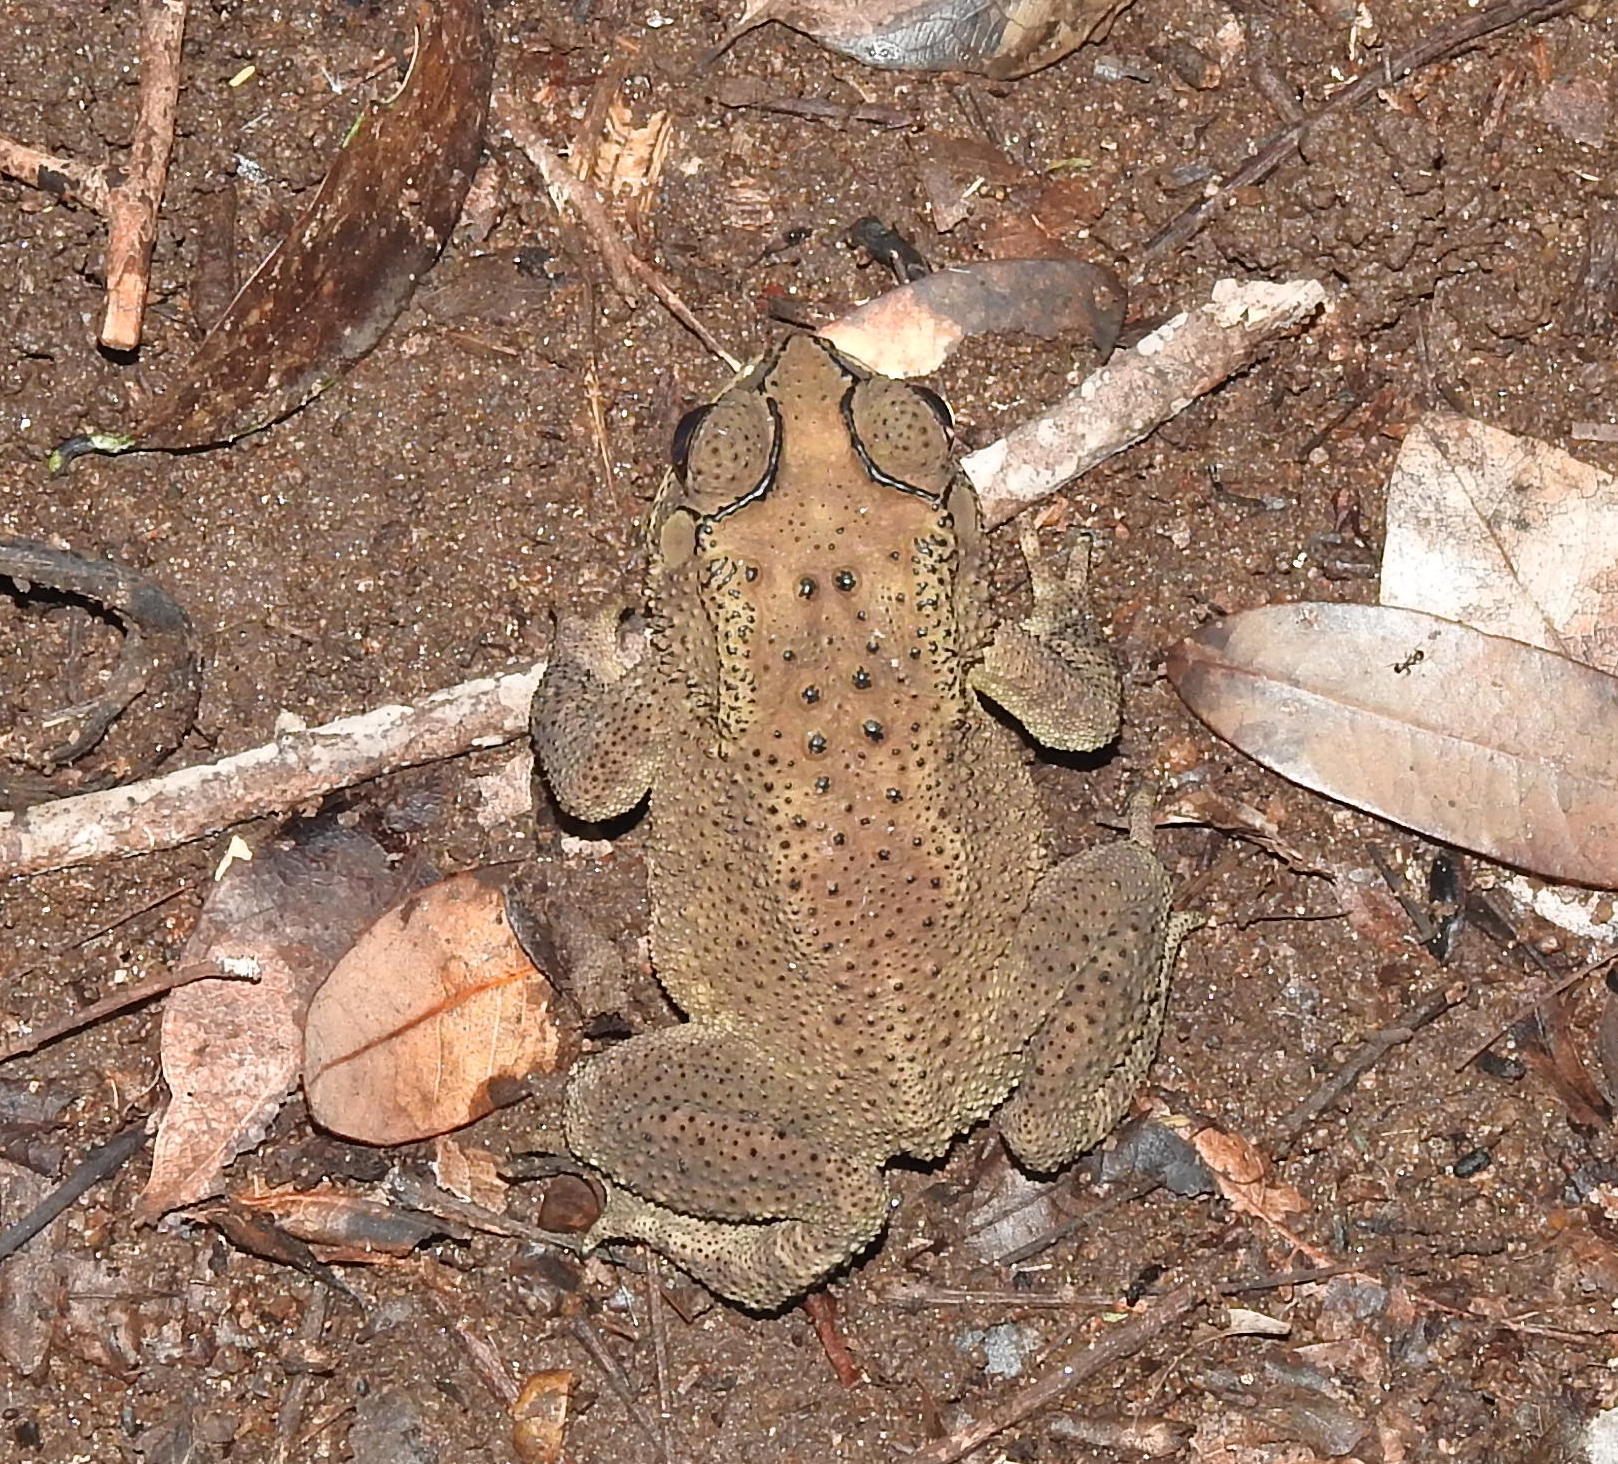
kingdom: Animalia
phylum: Chordata
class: Amphibia
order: Anura
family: Bufonidae
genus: Duttaphrynus
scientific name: Duttaphrynus melanostictus
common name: Common sunda toad
